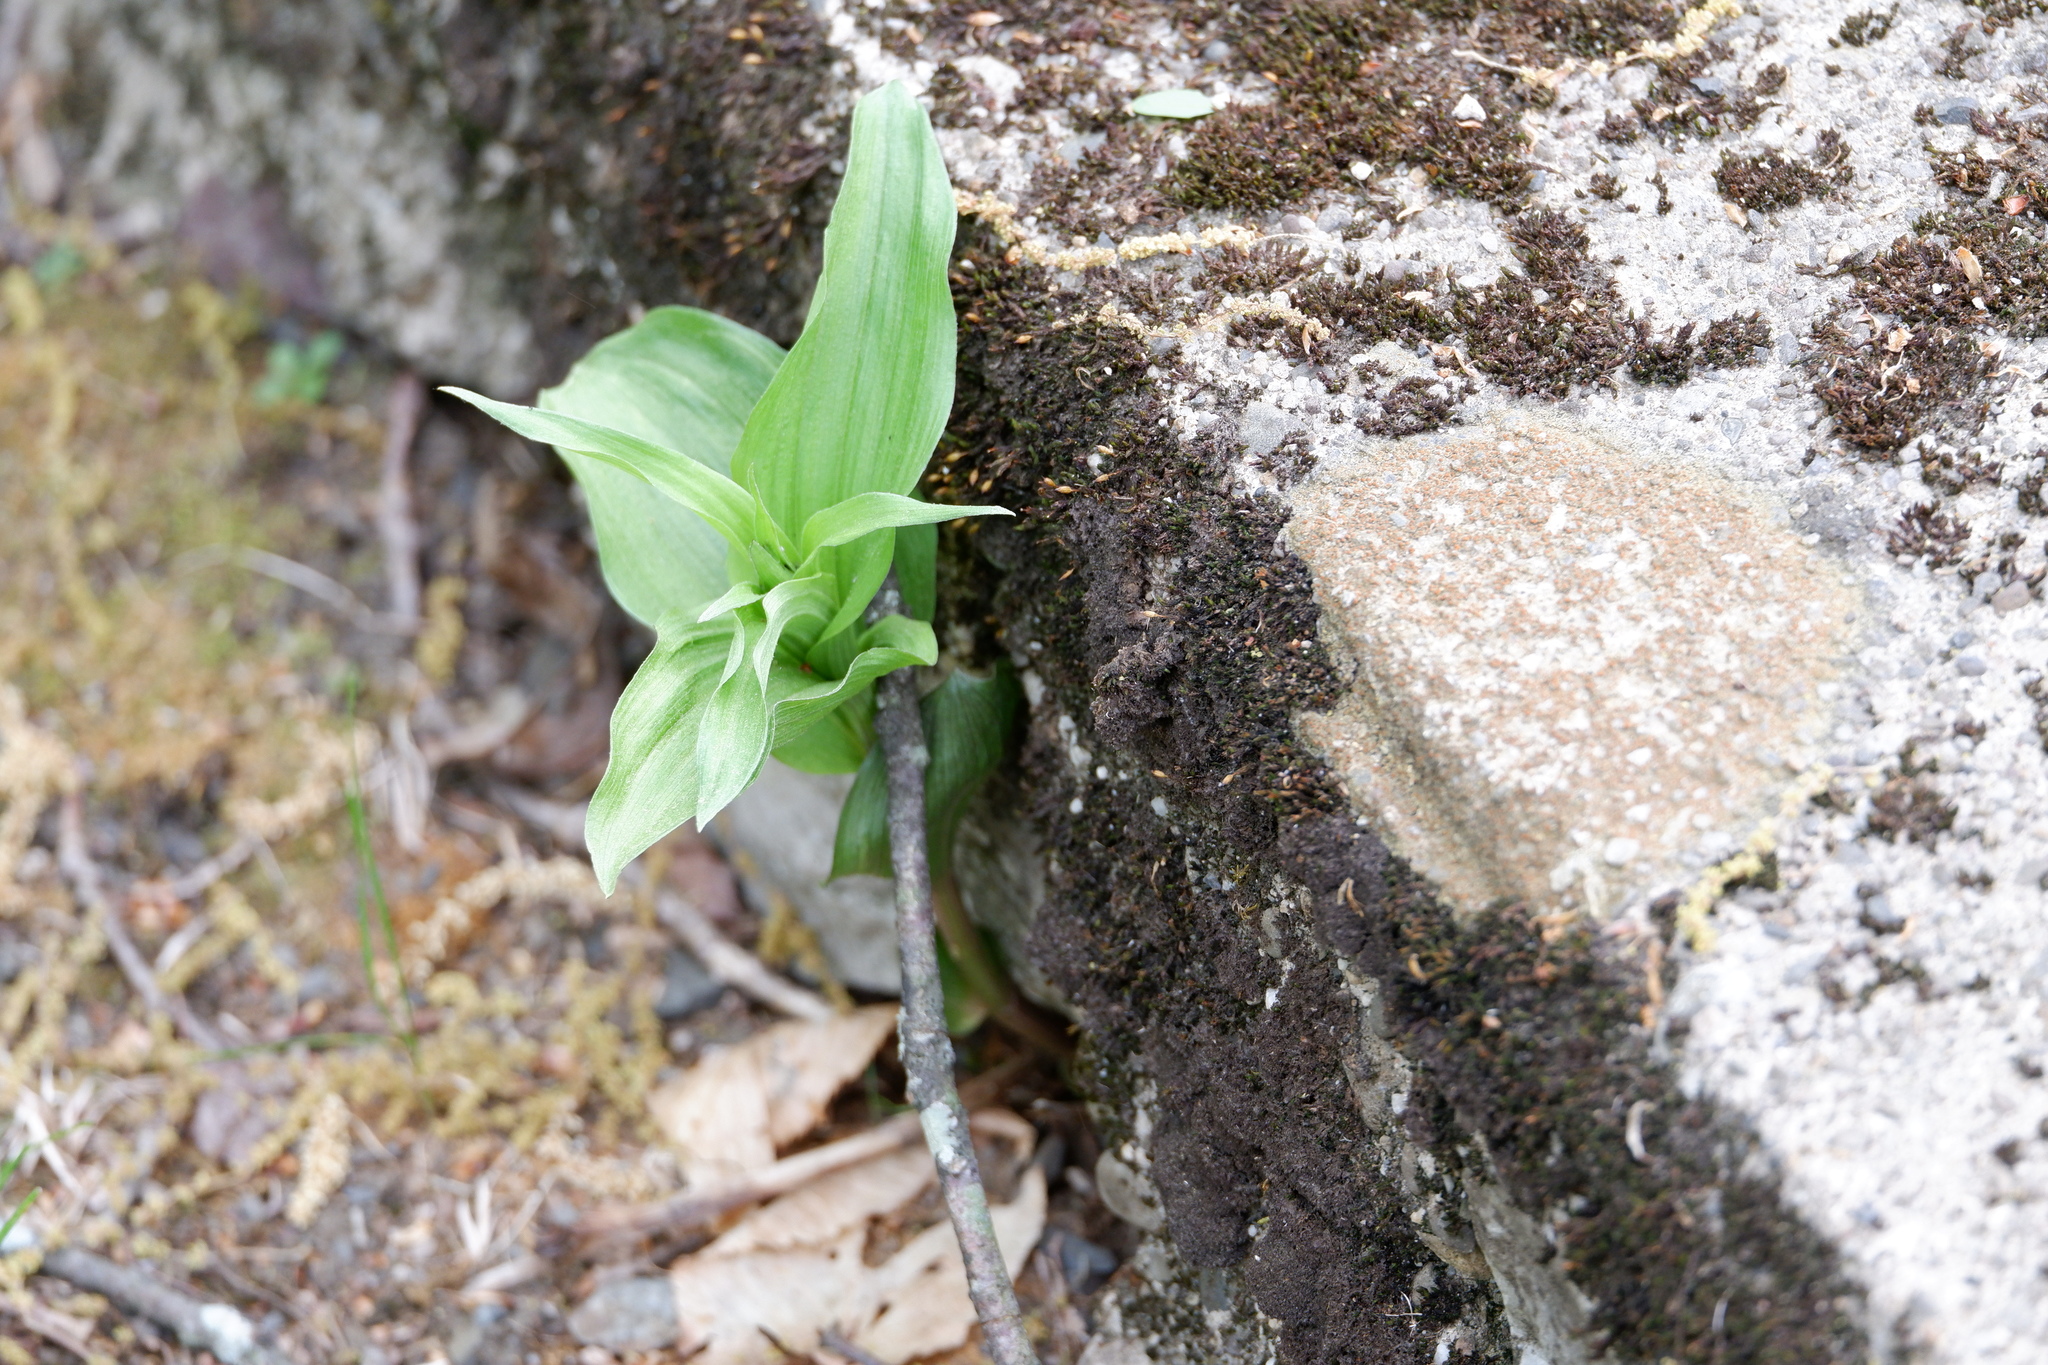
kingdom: Plantae
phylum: Tracheophyta
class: Liliopsida
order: Asparagales
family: Orchidaceae
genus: Epipactis
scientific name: Epipactis helleborine
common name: Broad-leaved helleborine
